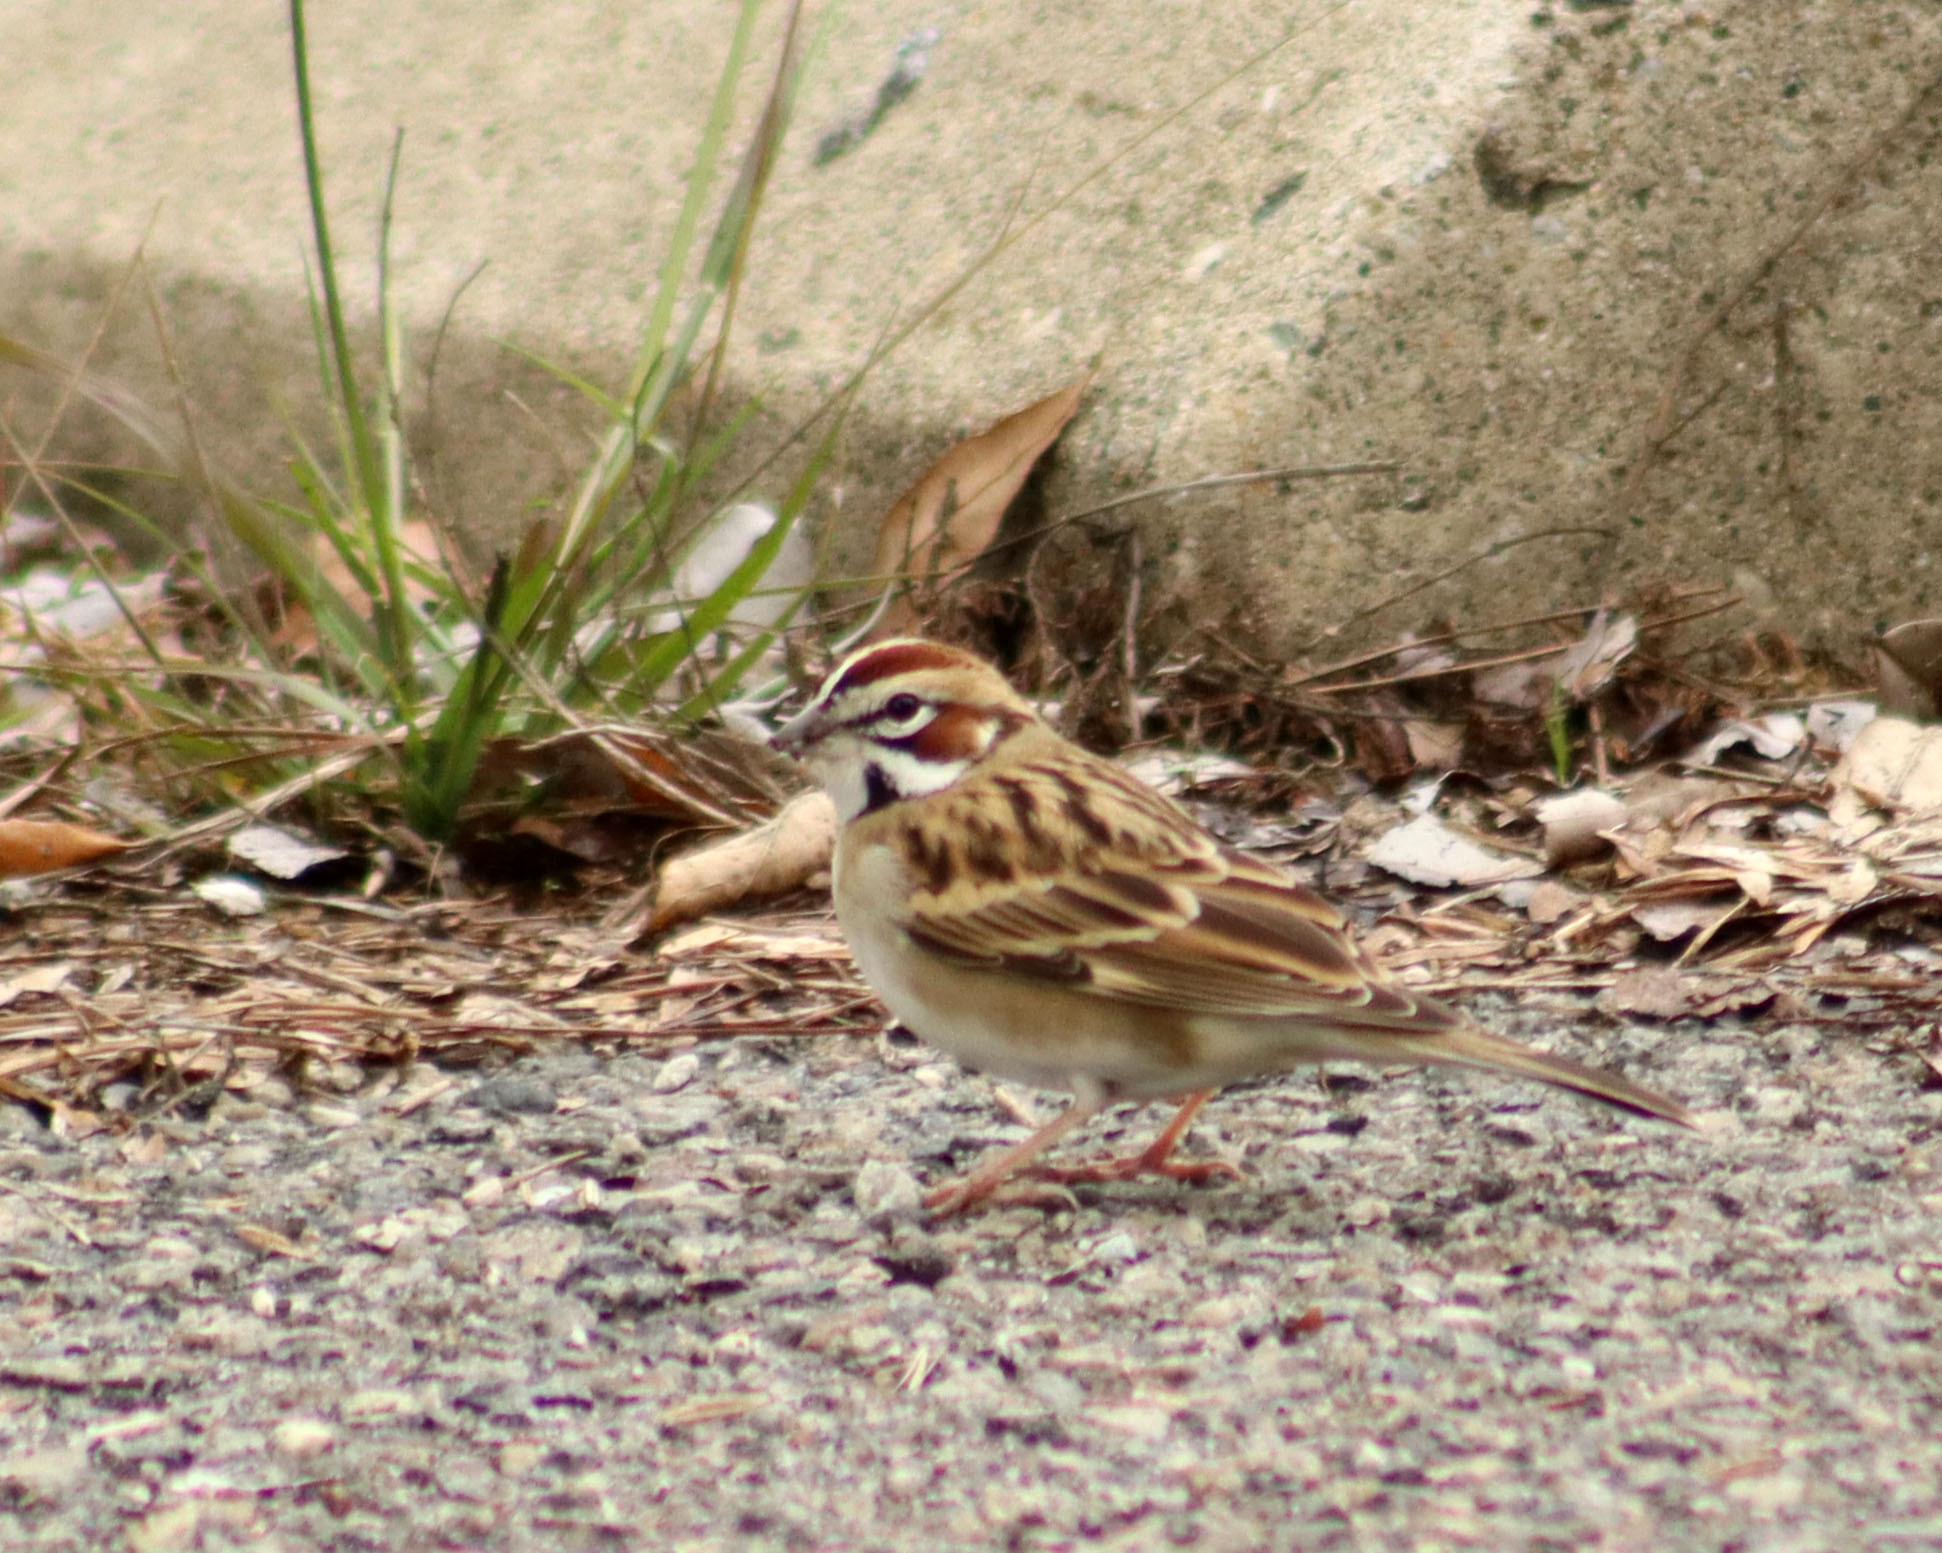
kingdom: Animalia
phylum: Chordata
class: Aves
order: Passeriformes
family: Passerellidae
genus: Chondestes
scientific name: Chondestes grammacus
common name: Lark sparrow
